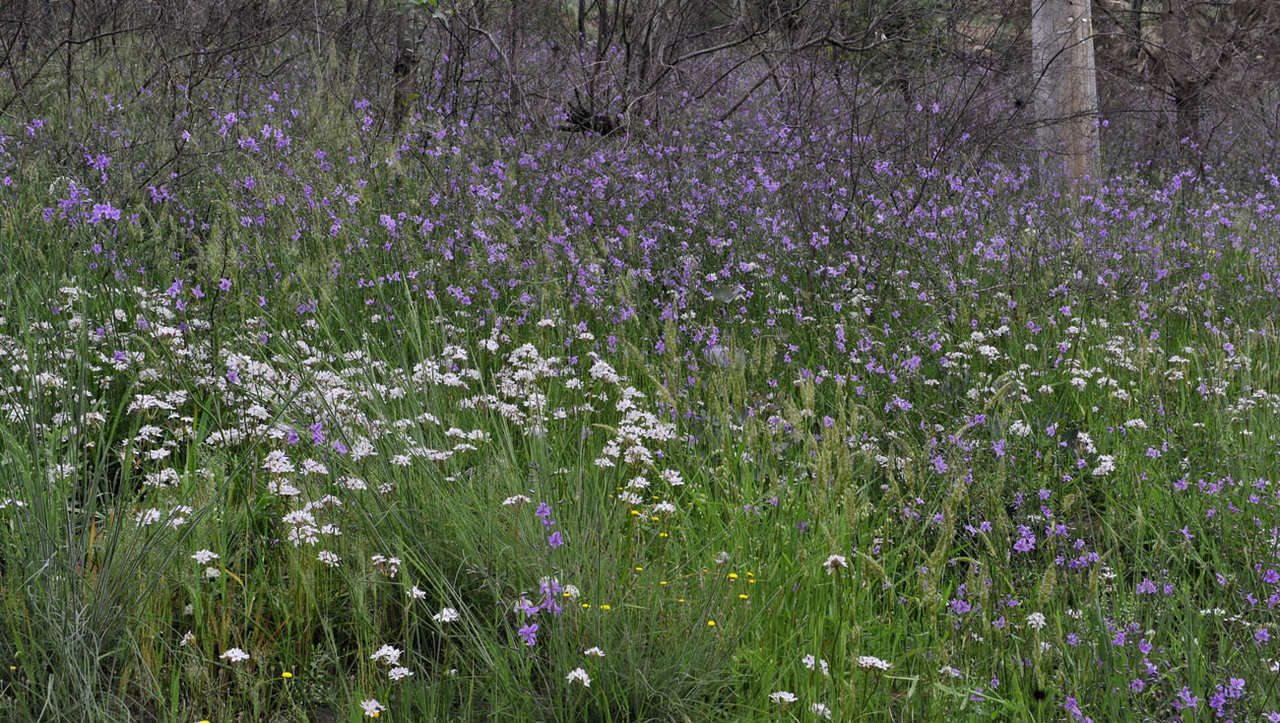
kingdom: Plantae
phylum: Tracheophyta
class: Liliopsida
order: Liliales
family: Colchicaceae
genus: Burchardia
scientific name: Burchardia umbellata
